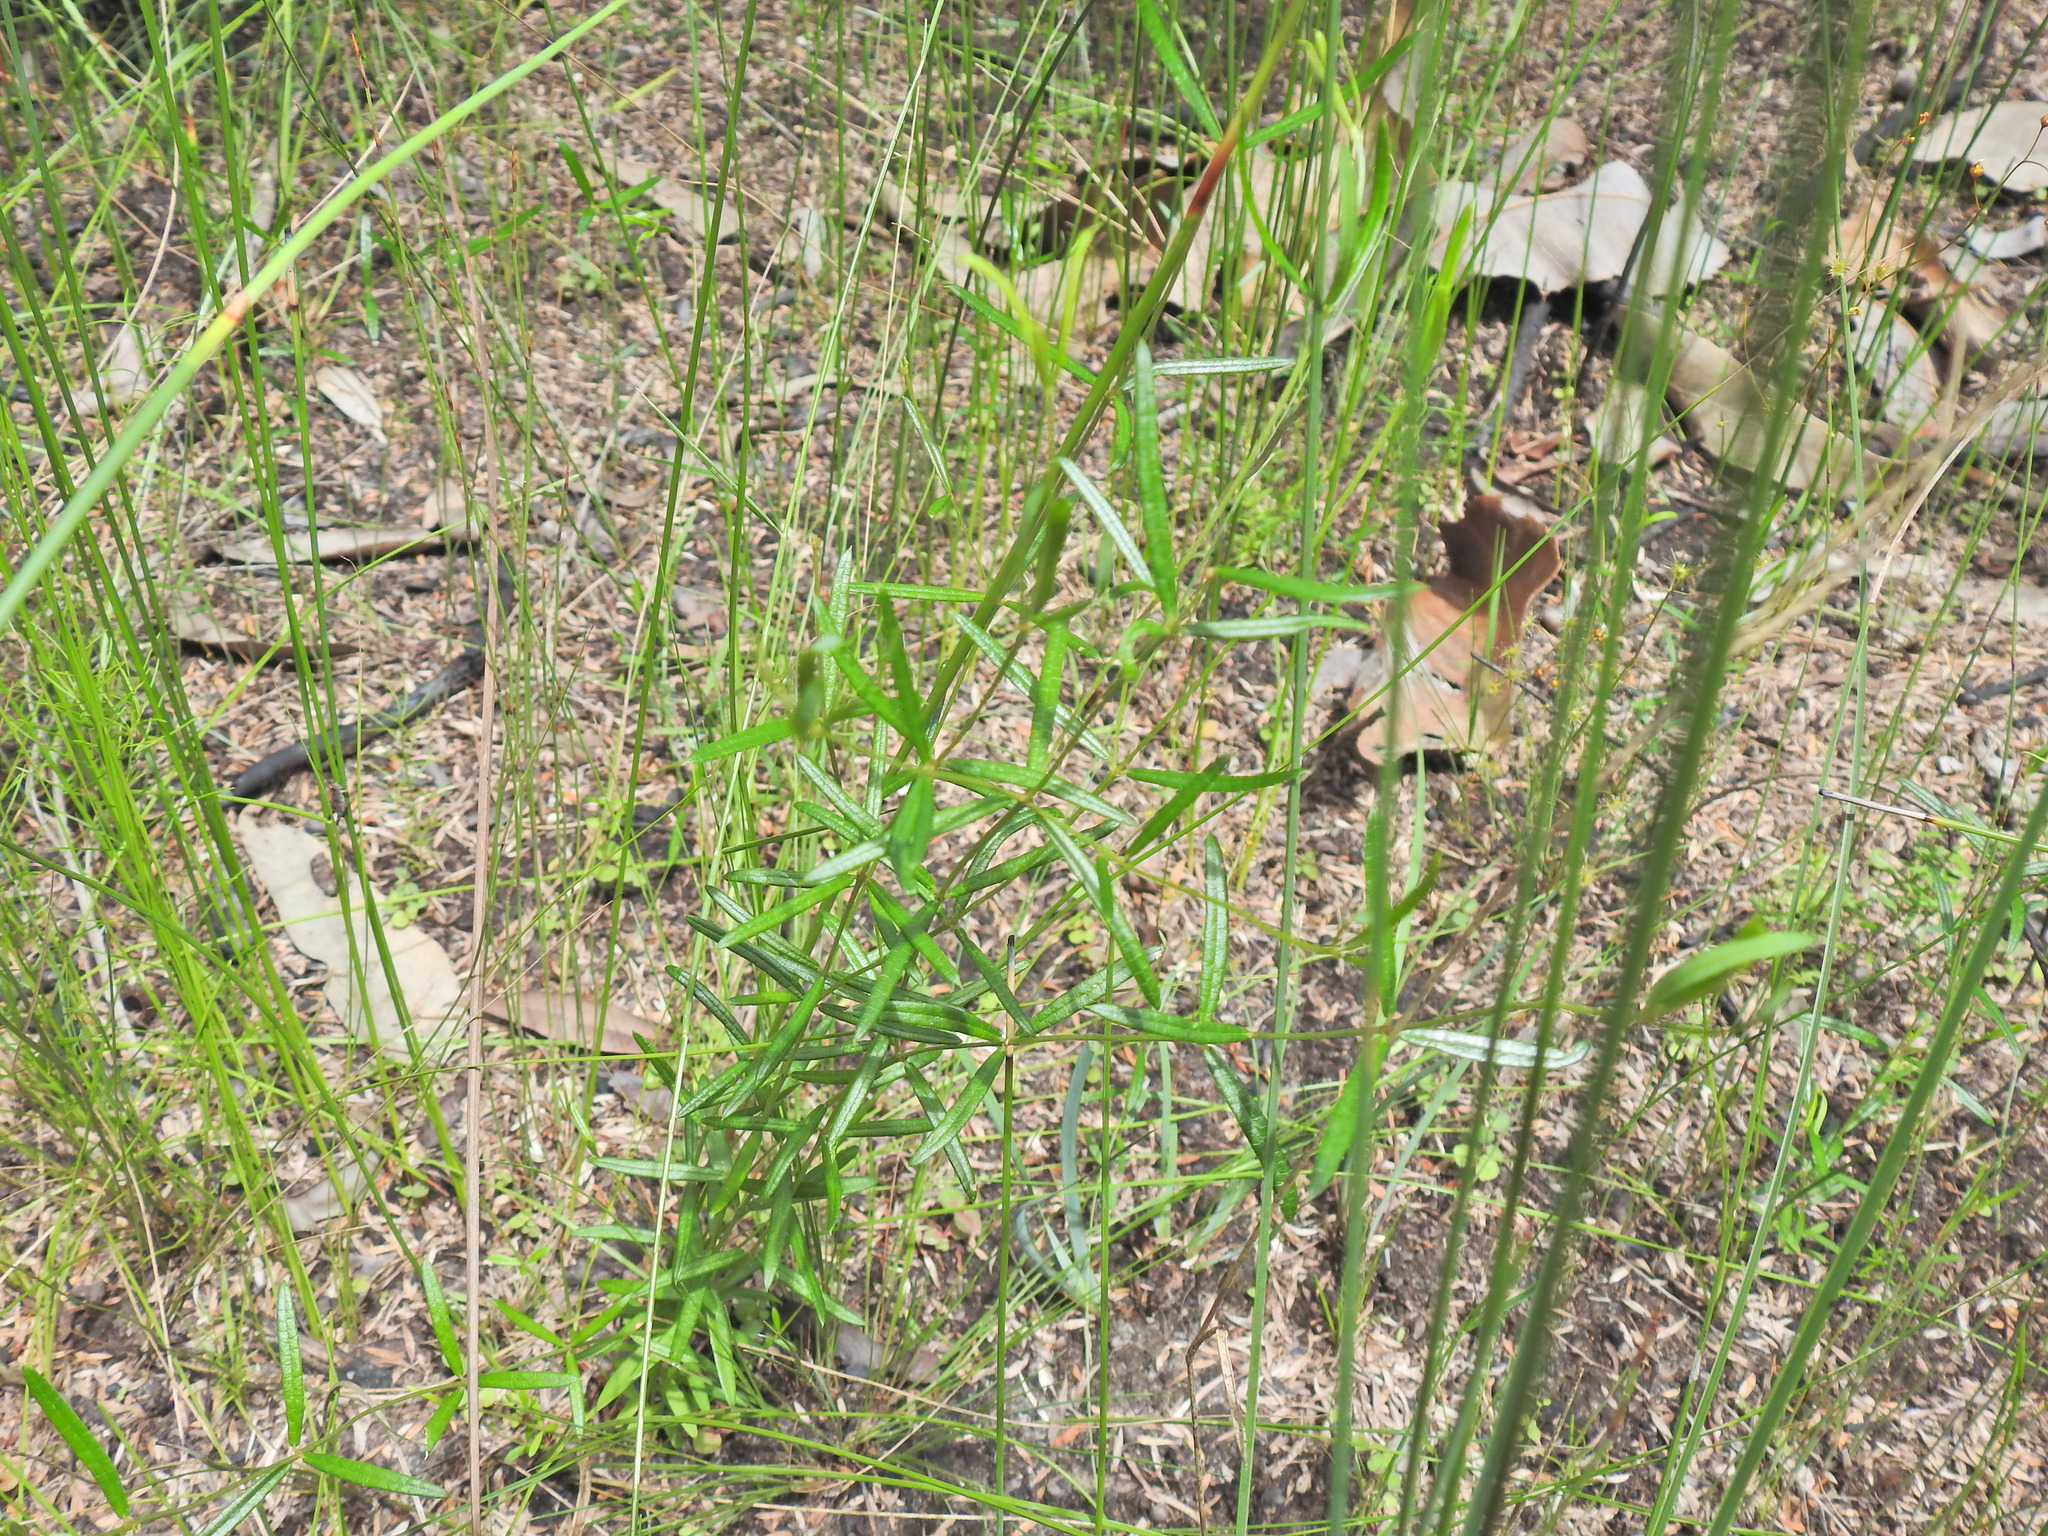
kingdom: Plantae
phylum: Tracheophyta
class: Magnoliopsida
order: Fabales
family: Fabaceae
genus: Mirbelia
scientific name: Mirbelia rubiifolia
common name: Heathy mirbelia
